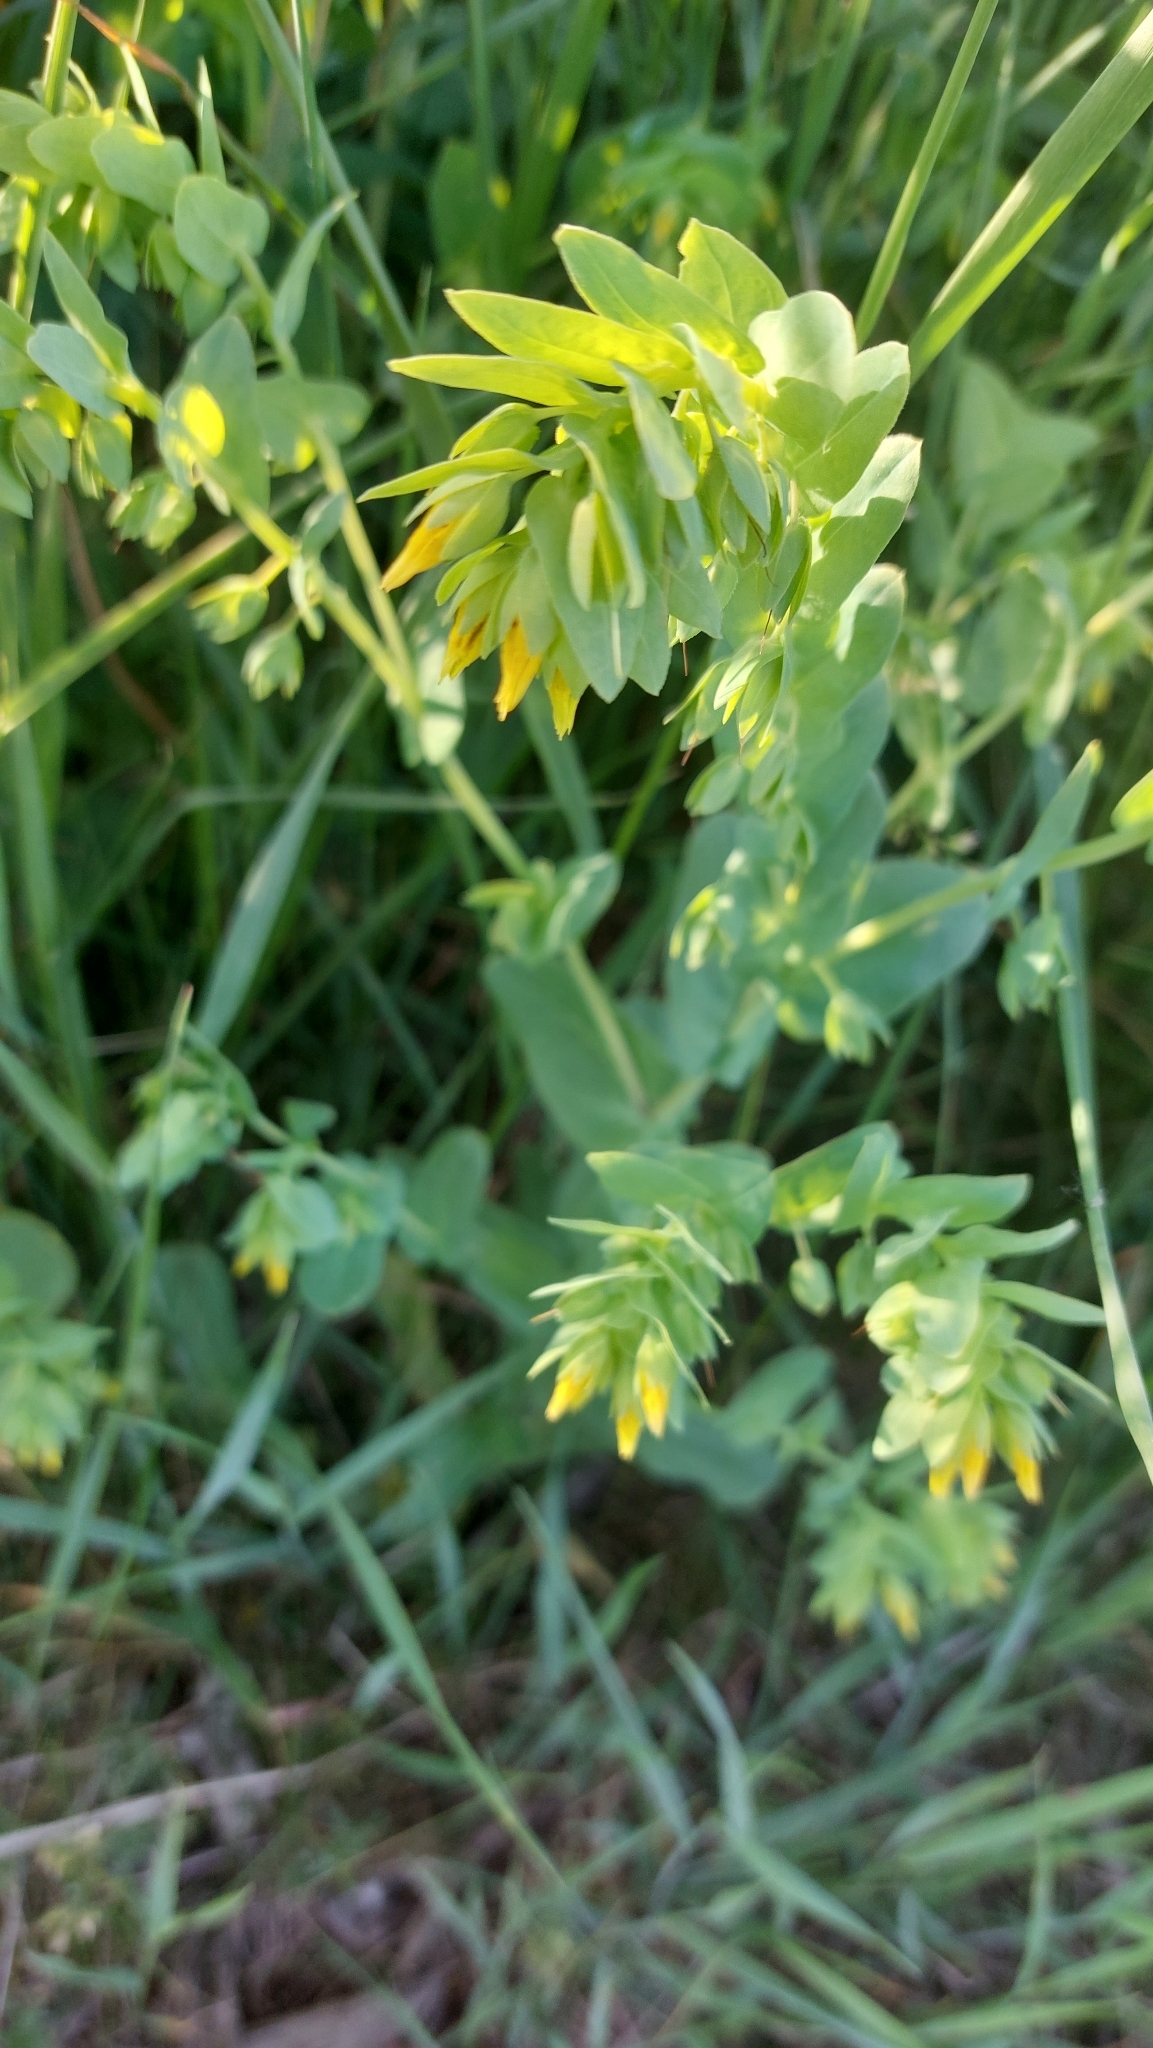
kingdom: Plantae
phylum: Tracheophyta
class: Magnoliopsida
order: Boraginales
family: Boraginaceae
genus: Cerinthe
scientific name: Cerinthe minor
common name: Lesser honeywort
